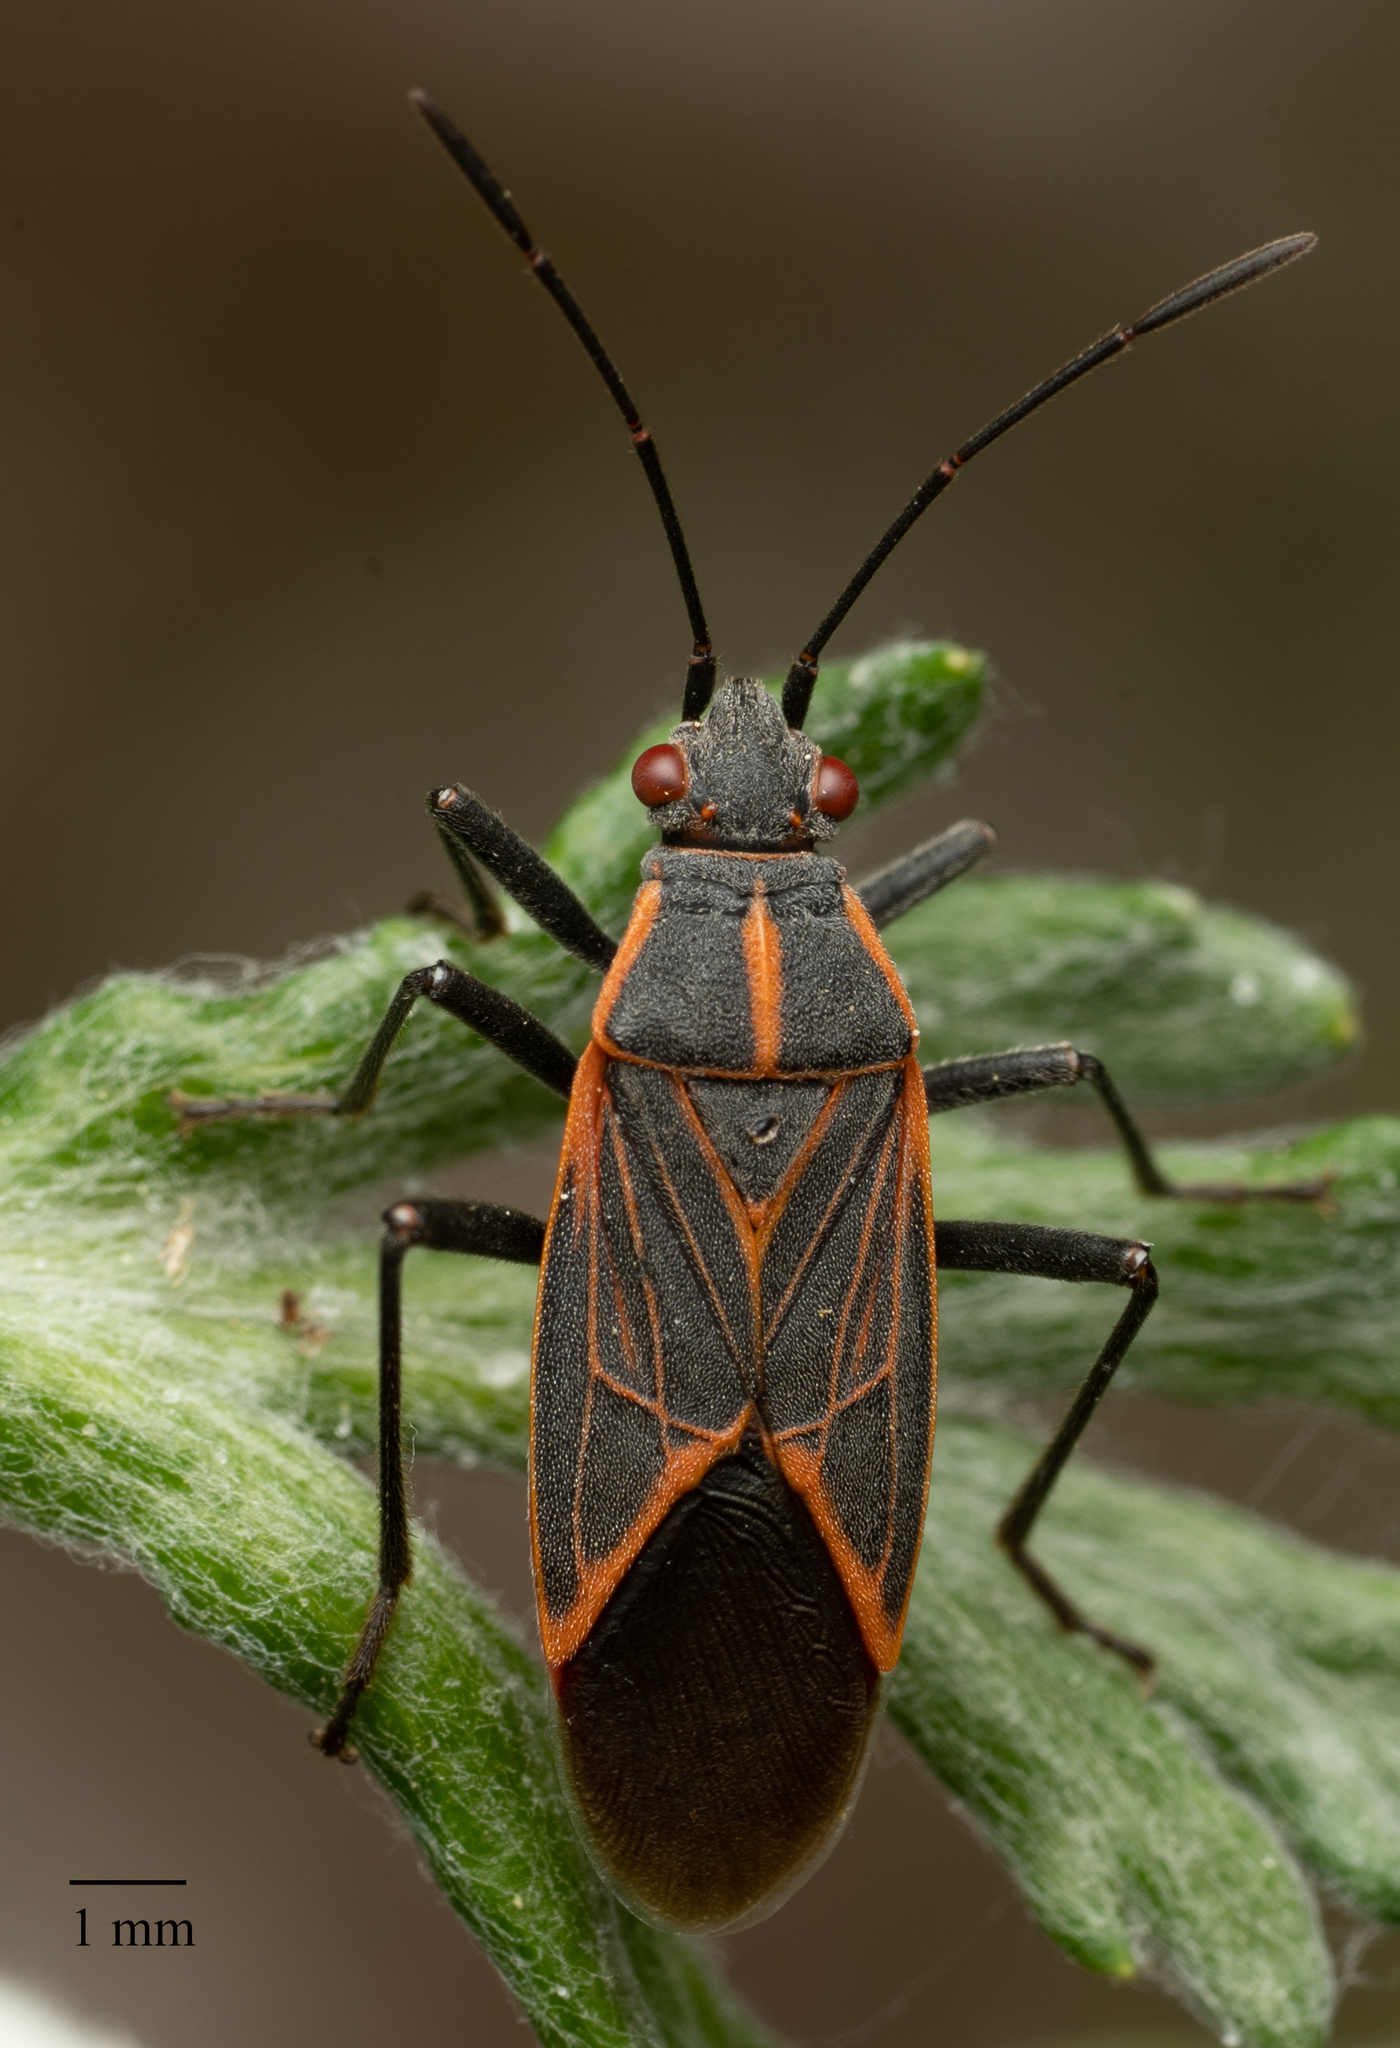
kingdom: Animalia
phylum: Arthropoda
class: Insecta
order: Hemiptera
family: Rhopalidae
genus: Boisea
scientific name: Boisea rubrolineata
